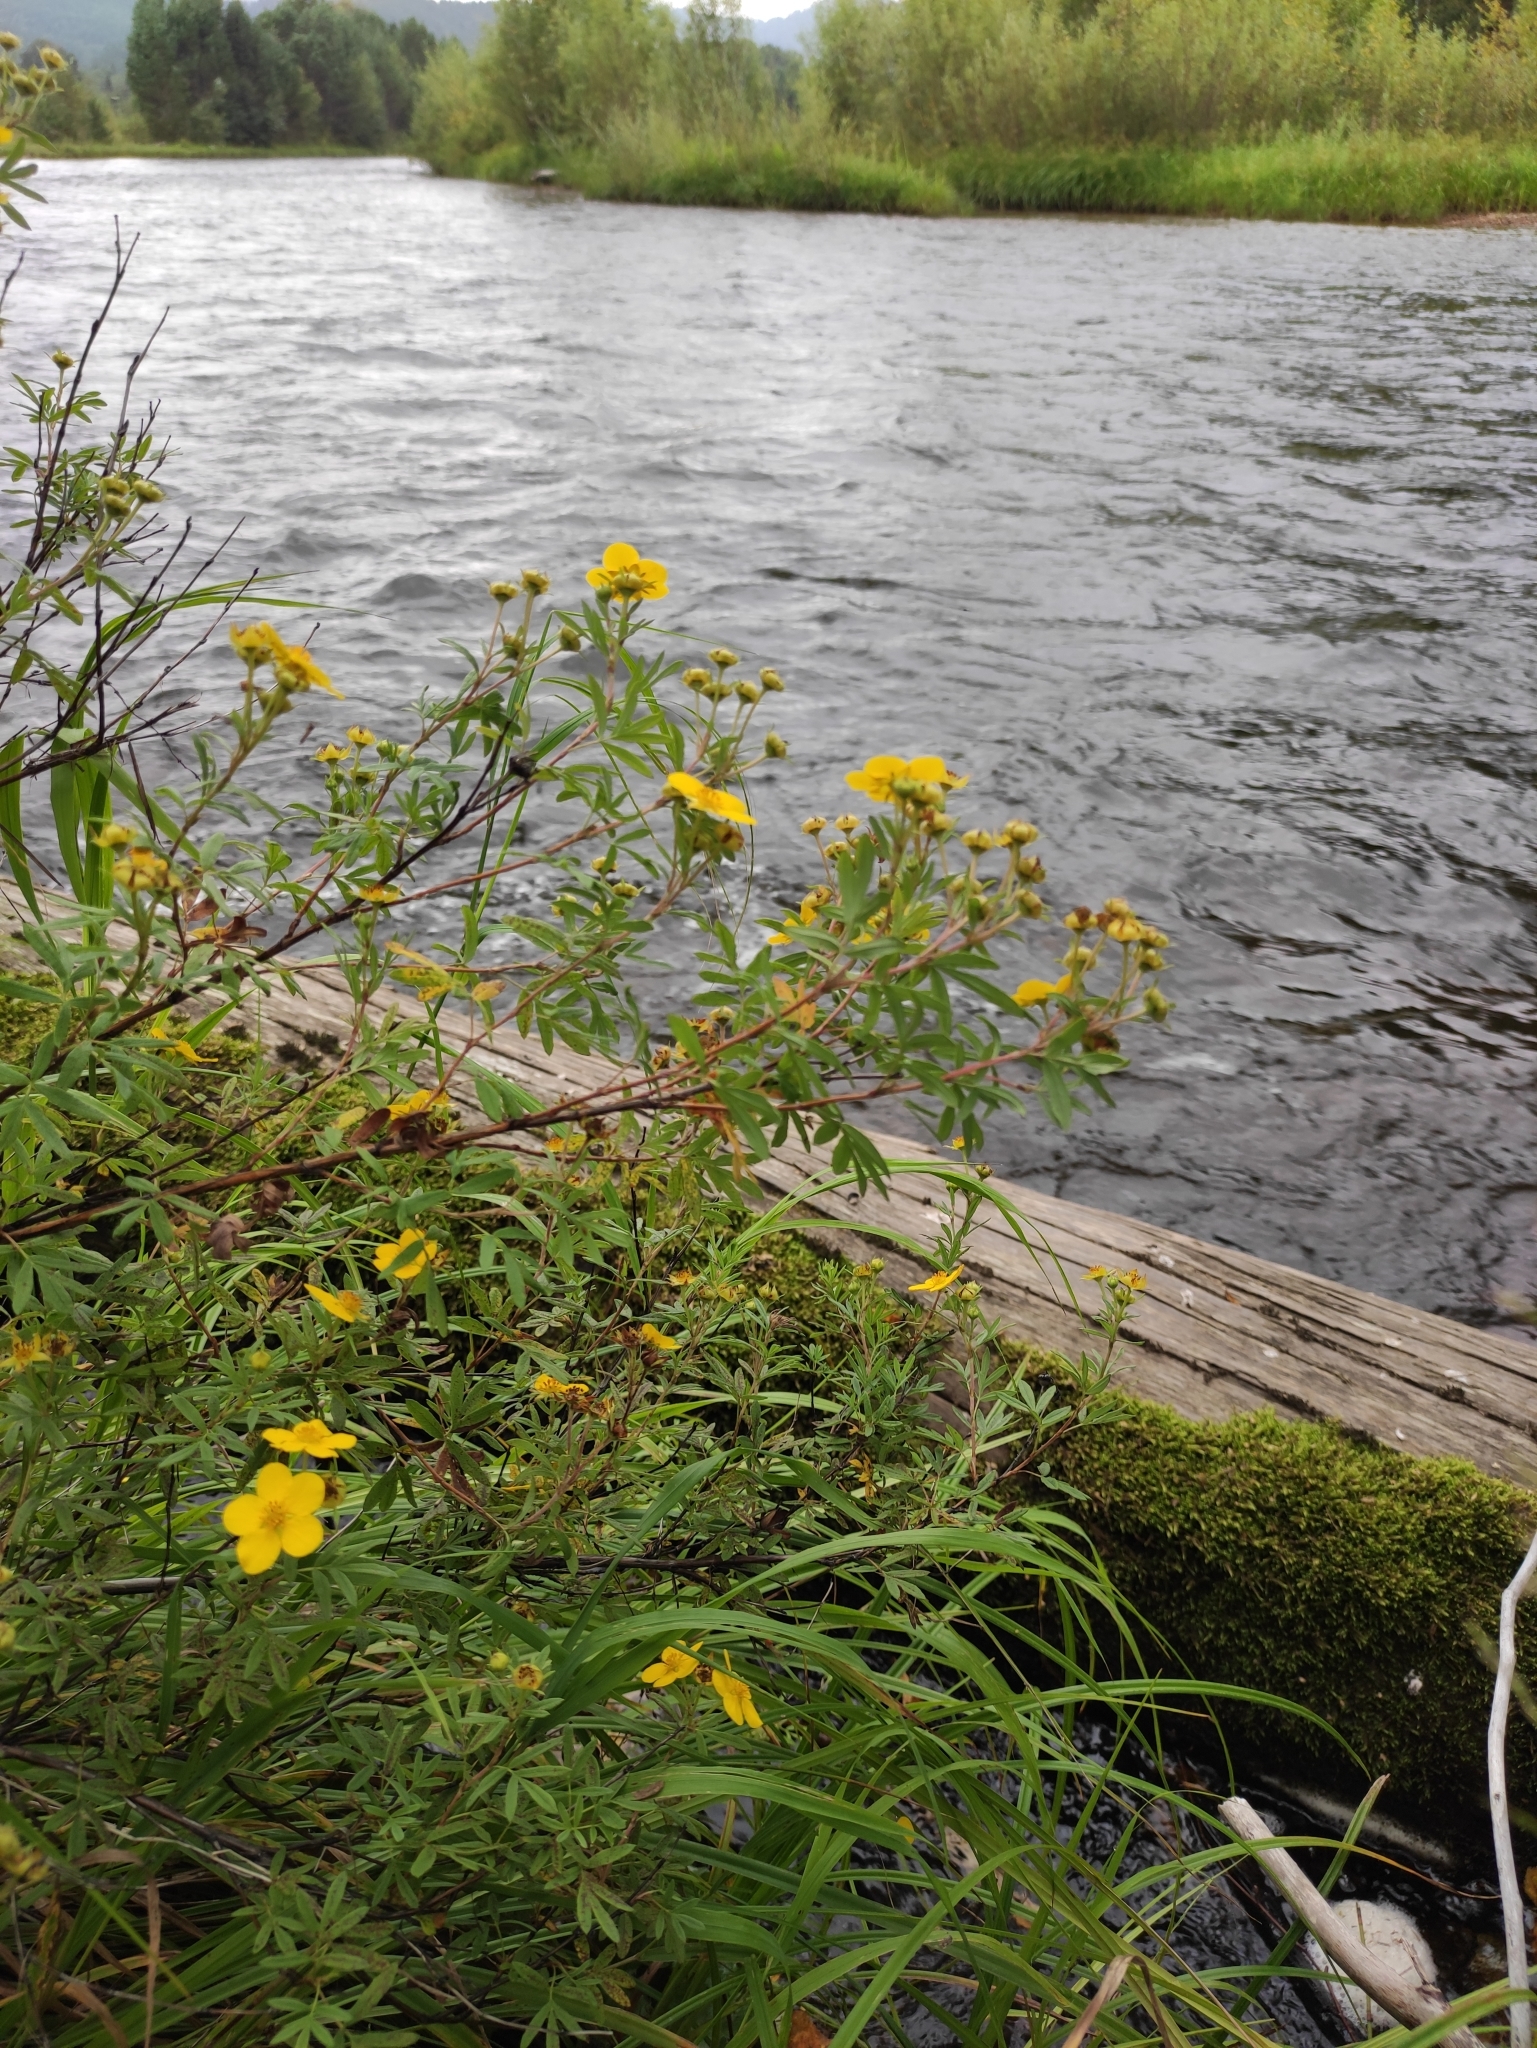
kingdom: Plantae
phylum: Tracheophyta
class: Magnoliopsida
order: Rosales
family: Rosaceae
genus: Dasiphora
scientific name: Dasiphora fruticosa
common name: Shrubby cinquefoil
